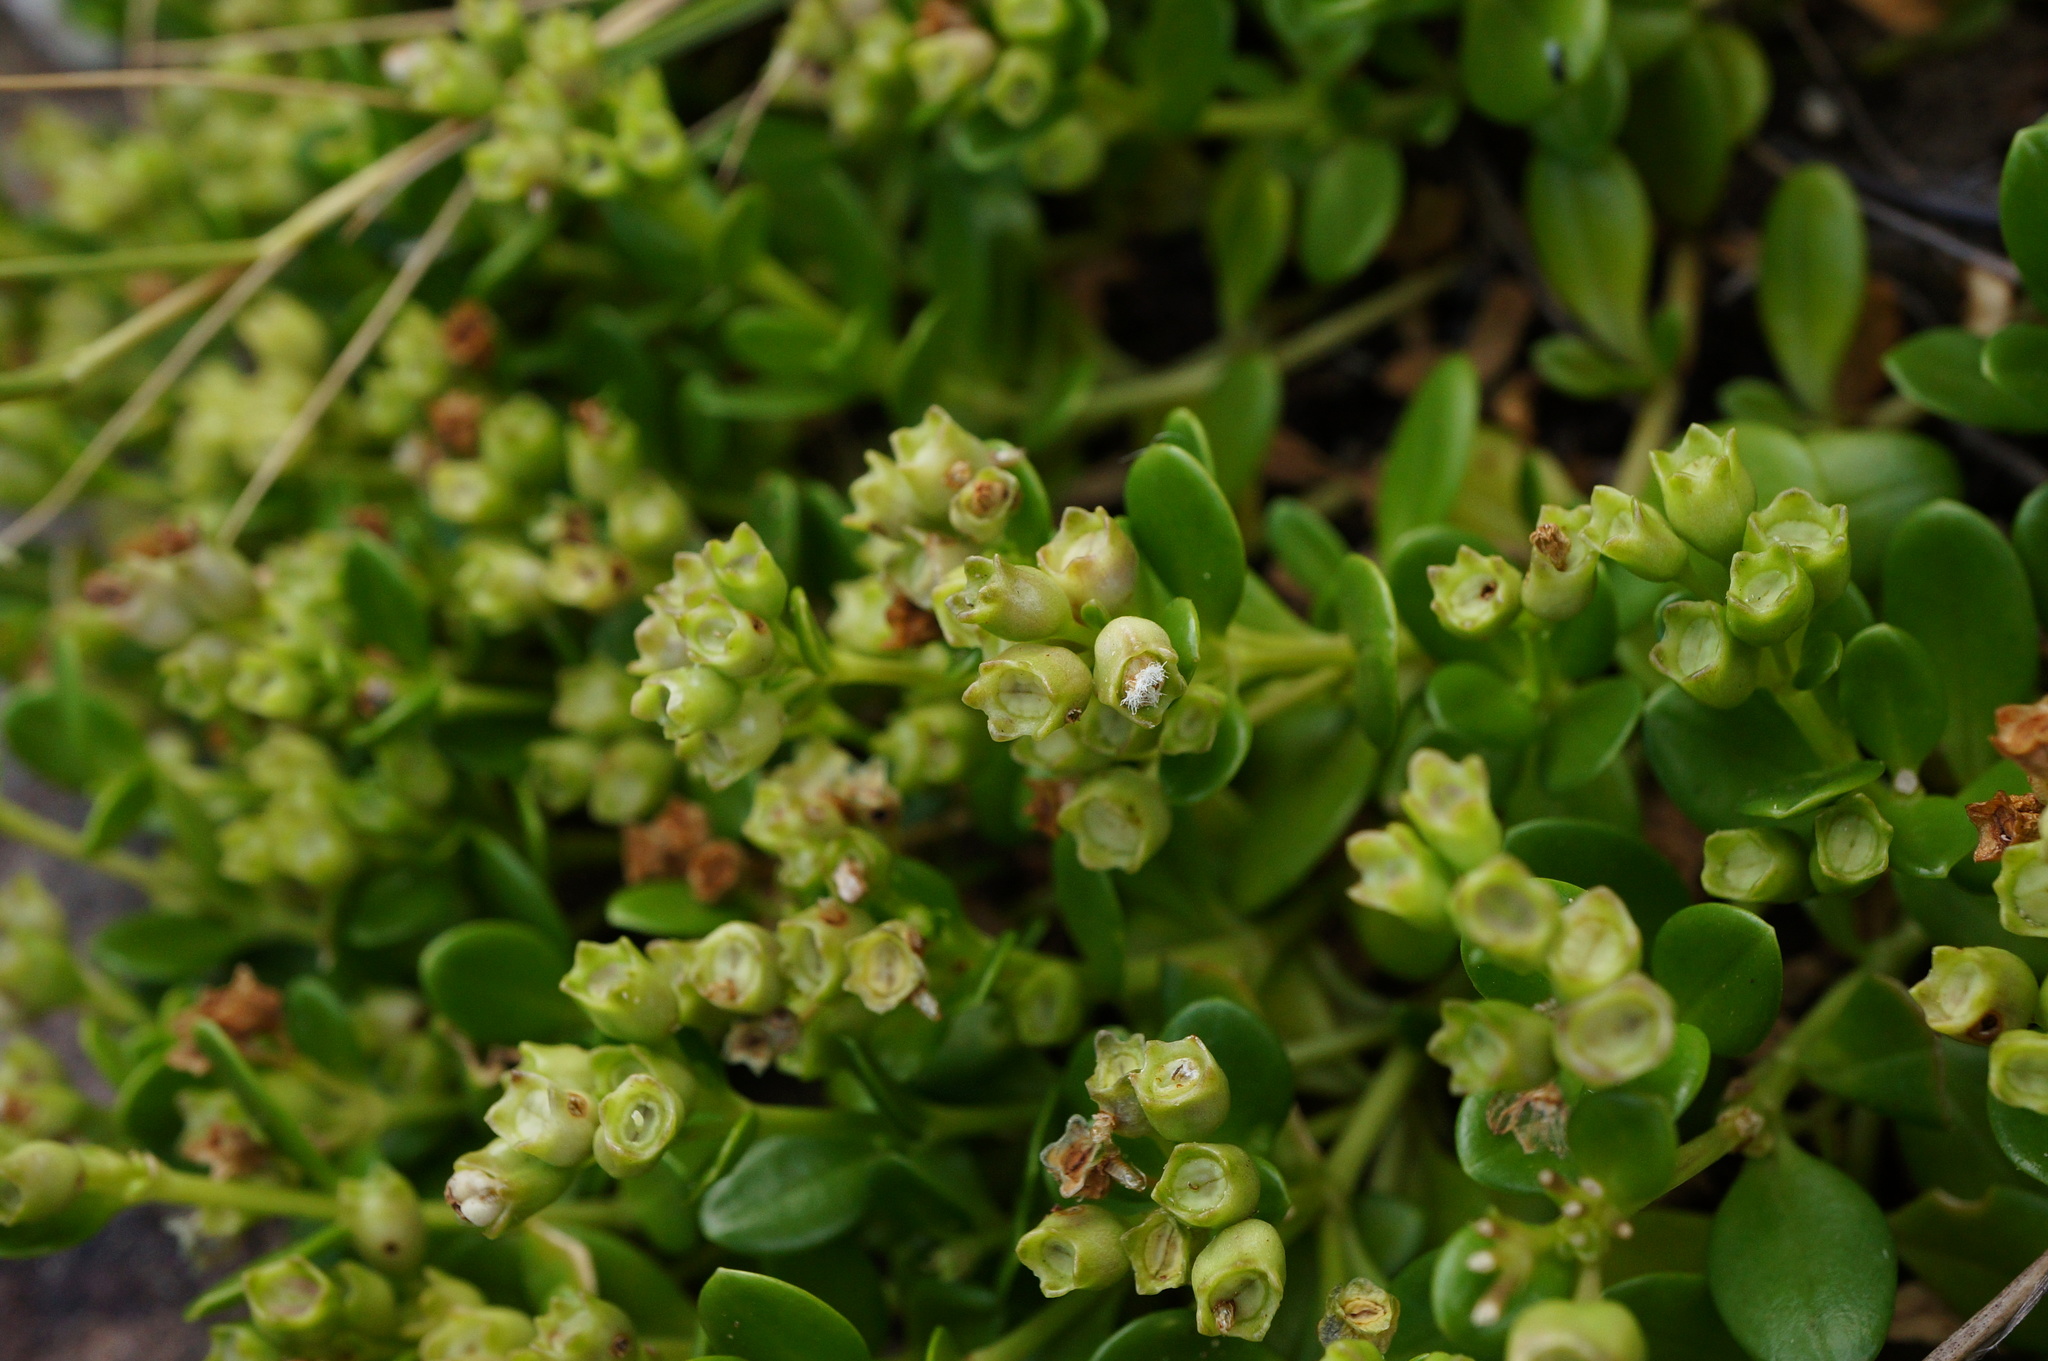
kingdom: Plantae
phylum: Tracheophyta
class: Magnoliopsida
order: Gentianales
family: Rubiaceae
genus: Leptopetalum
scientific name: Leptopetalum strigulosum
